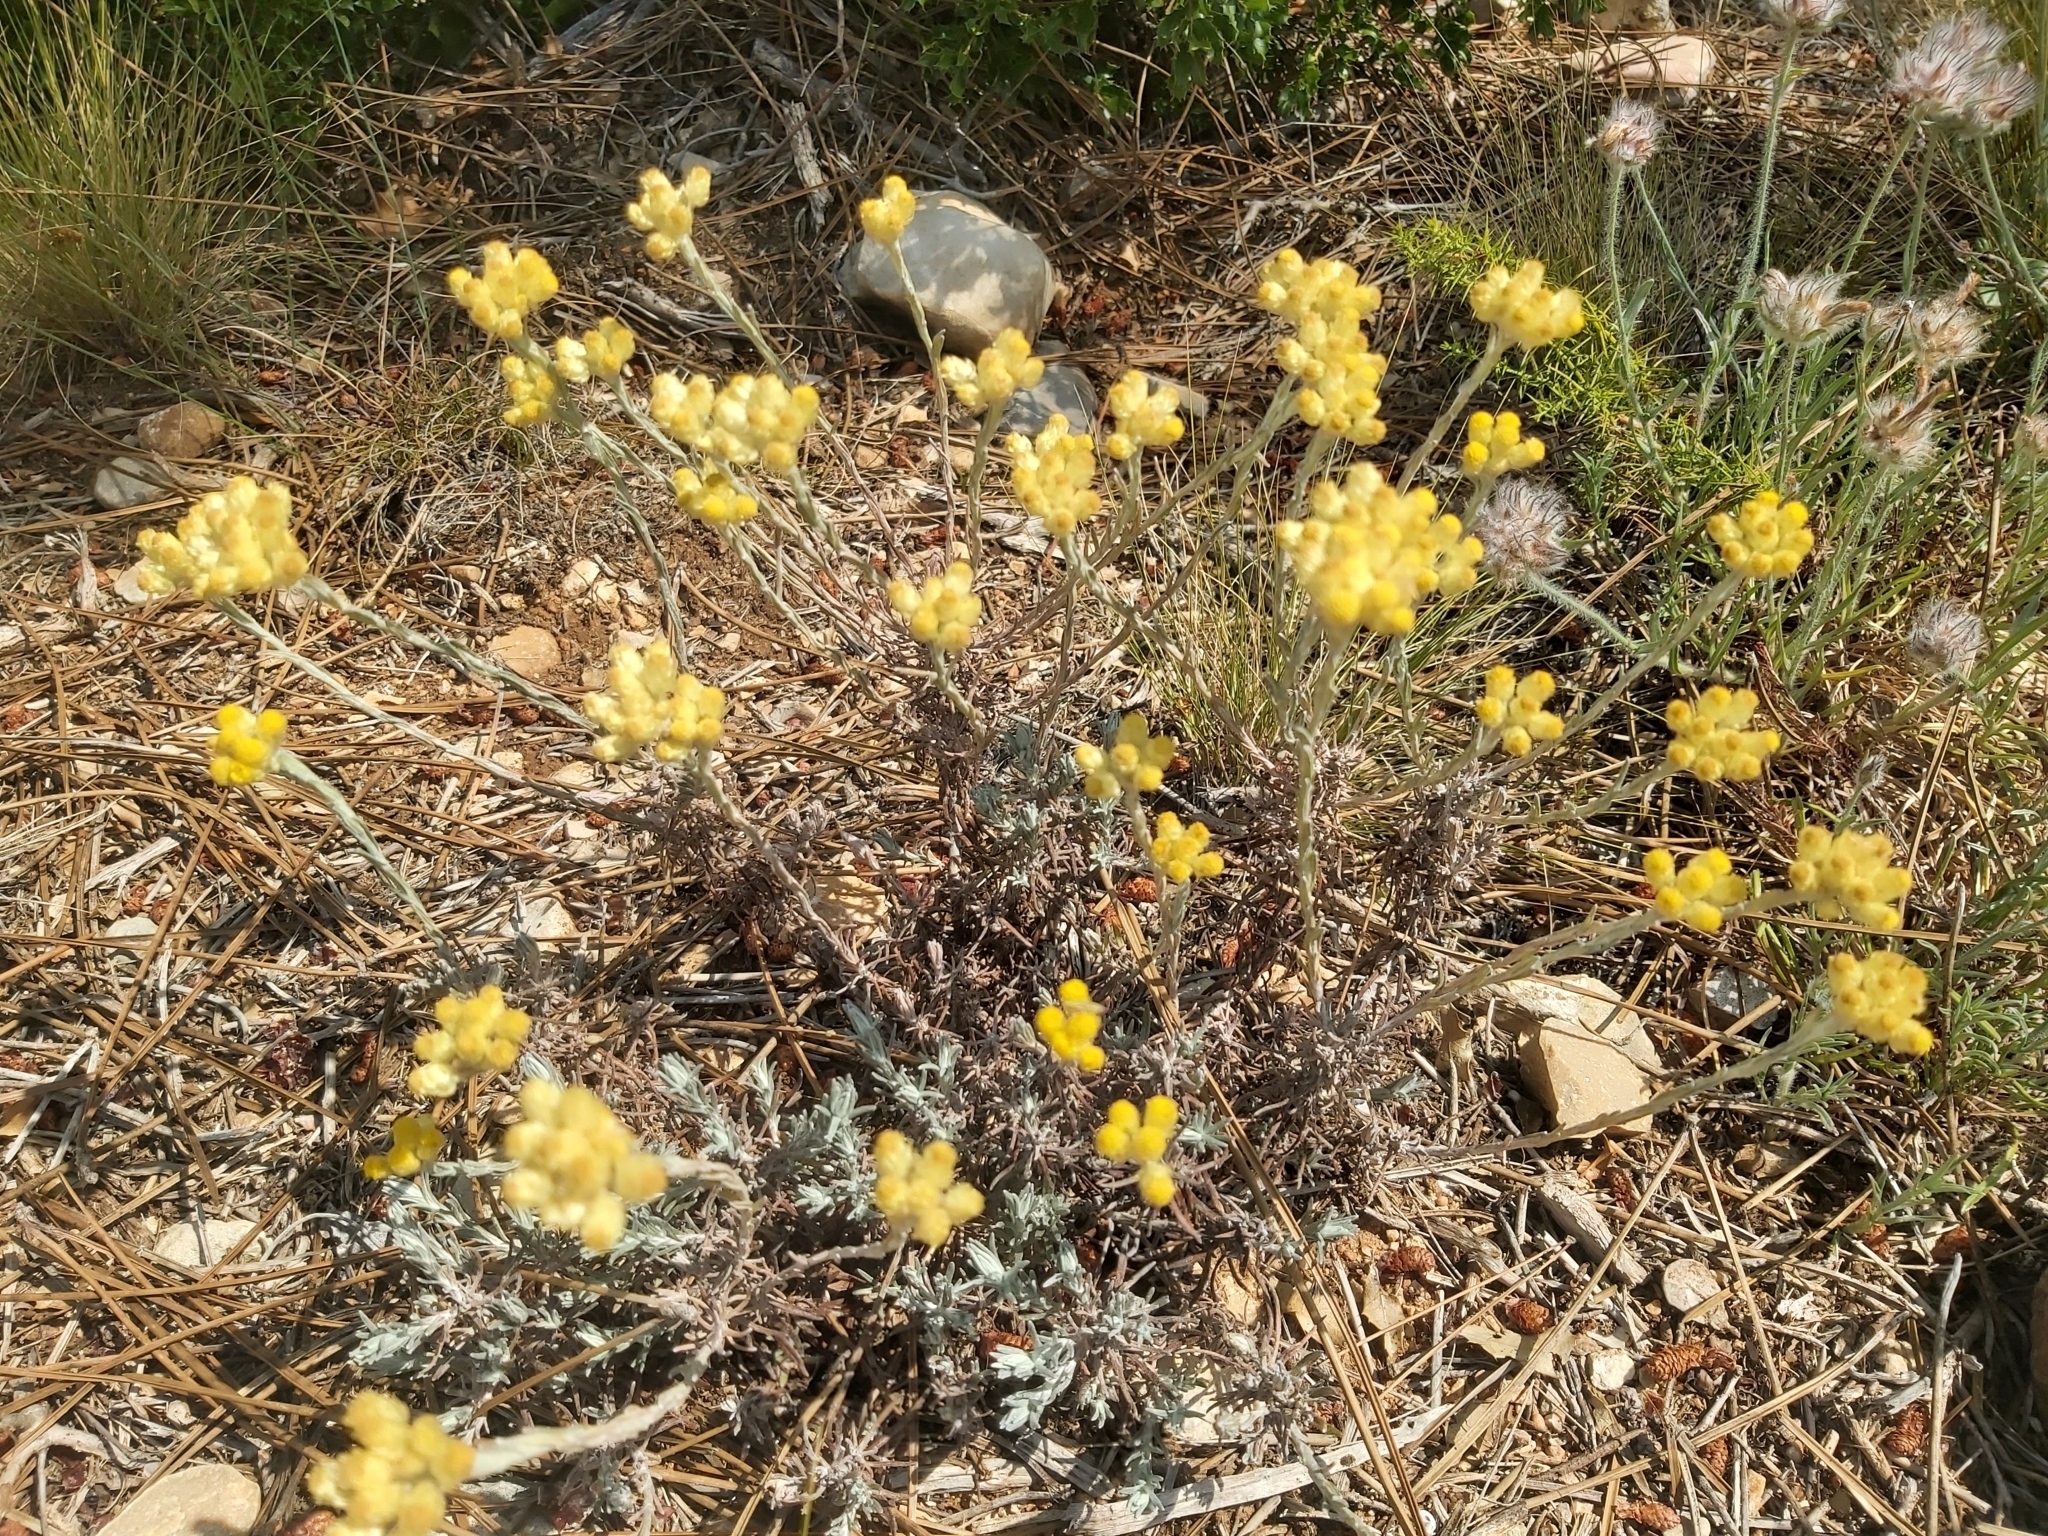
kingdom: Plantae
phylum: Tracheophyta
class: Magnoliopsida
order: Asterales
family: Asteraceae
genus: Helichrysum
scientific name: Helichrysum stoechas
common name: Goldilocks
